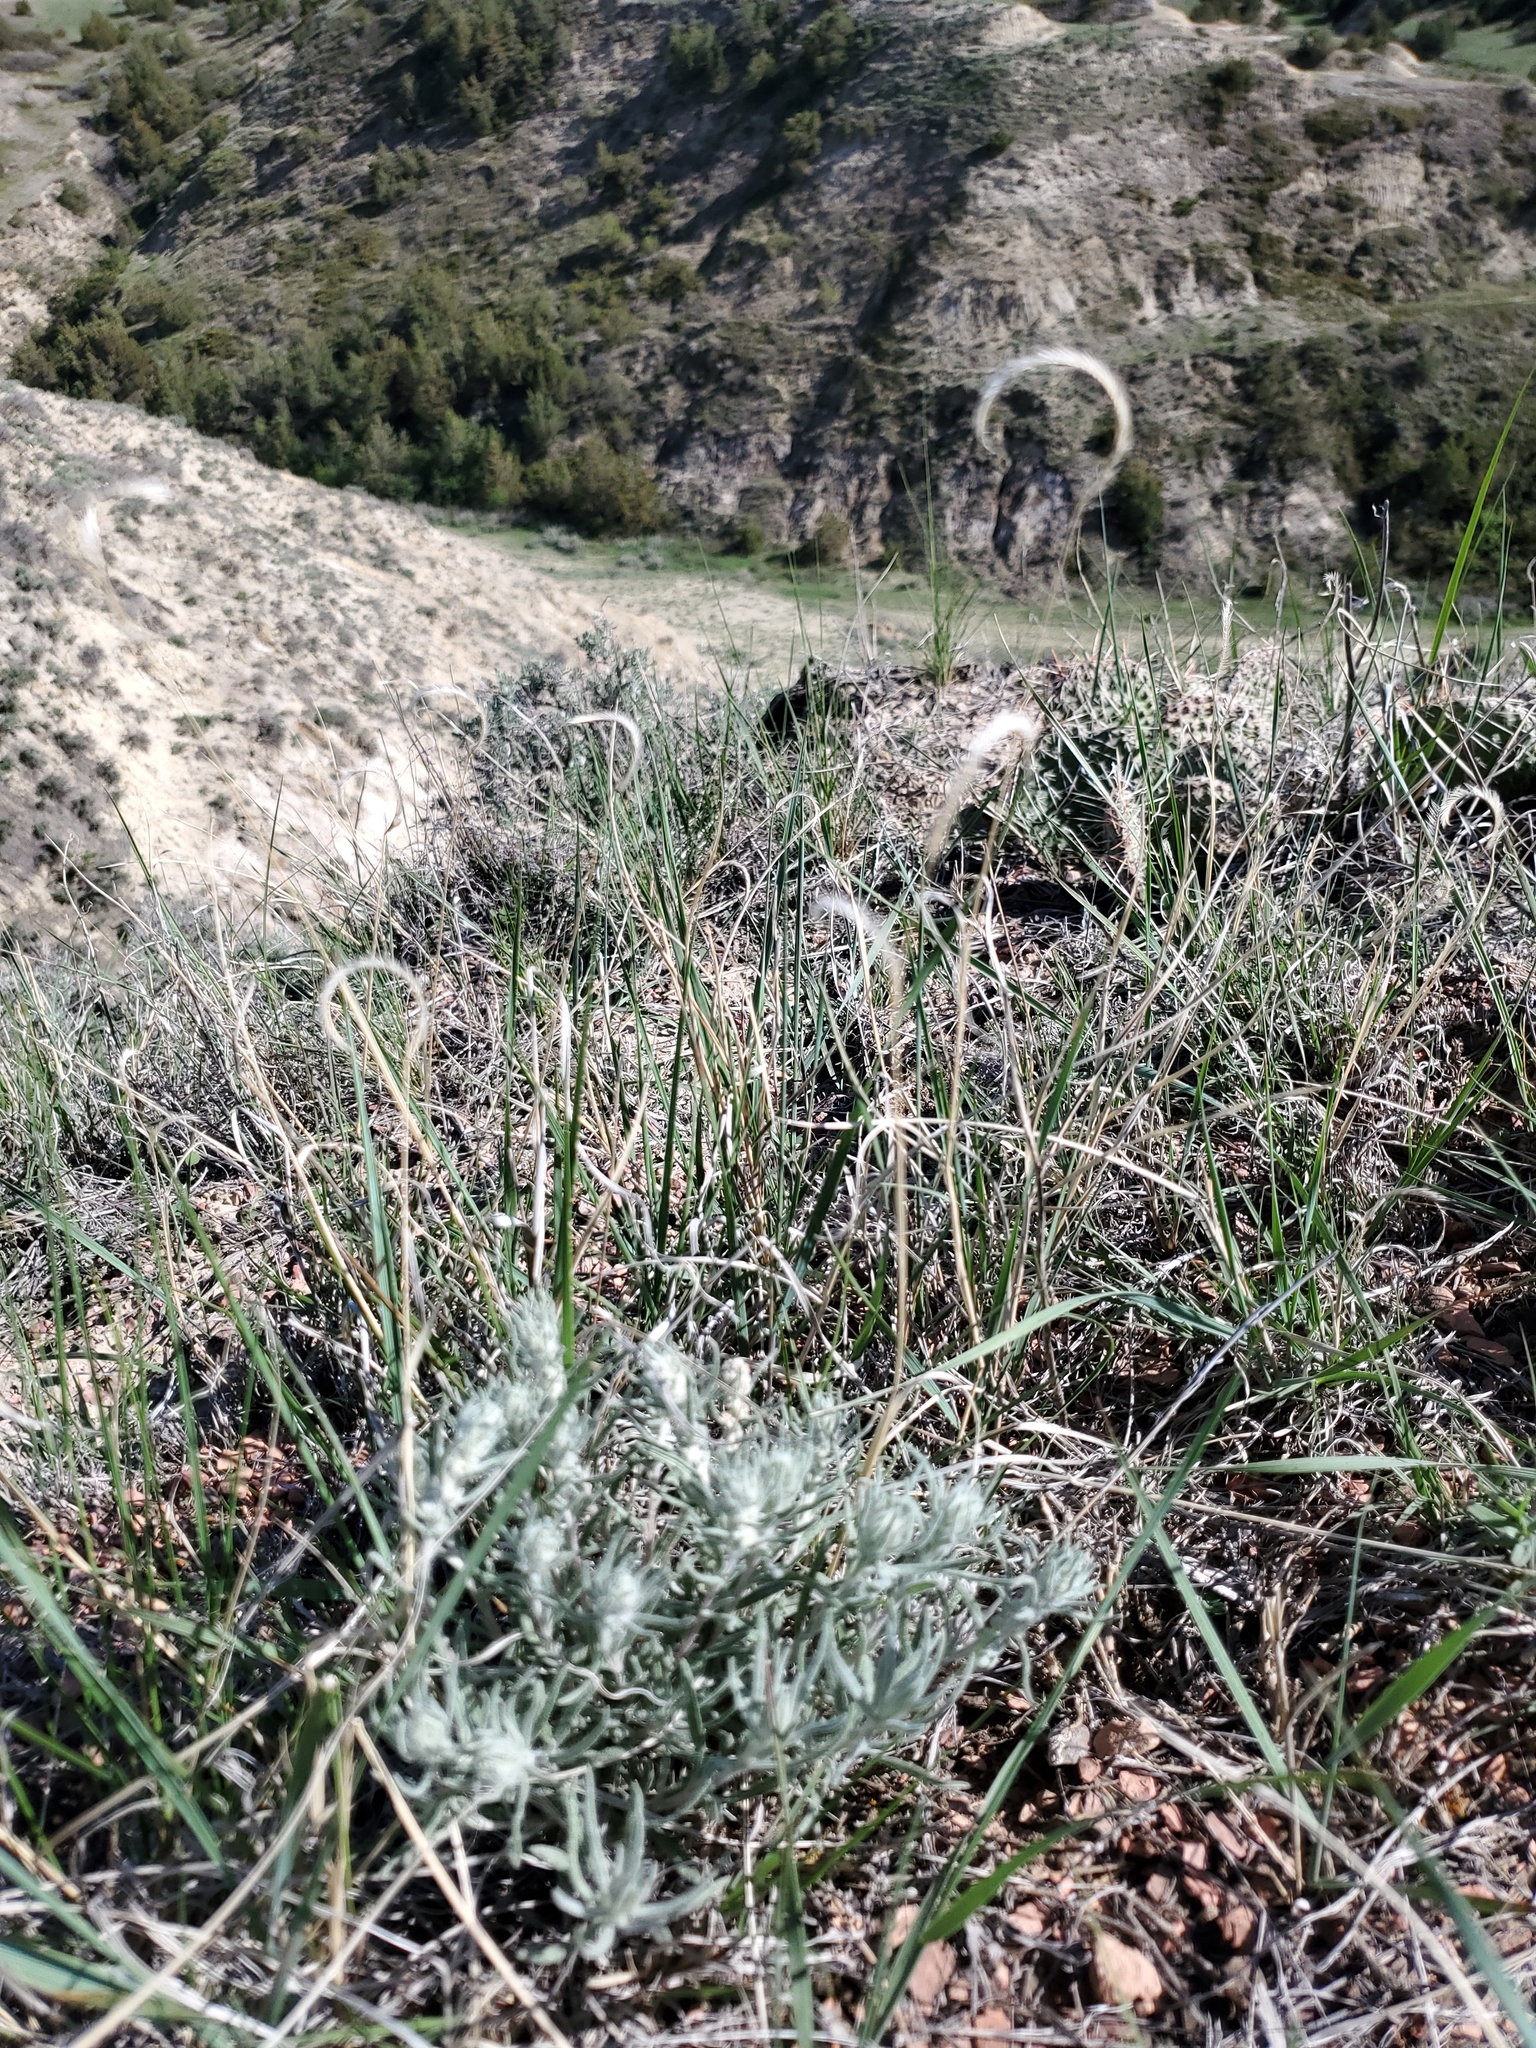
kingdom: Plantae
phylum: Tracheophyta
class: Liliopsida
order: Poales
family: Poaceae
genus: Bouteloua
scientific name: Bouteloua gracilis
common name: Blue grama
